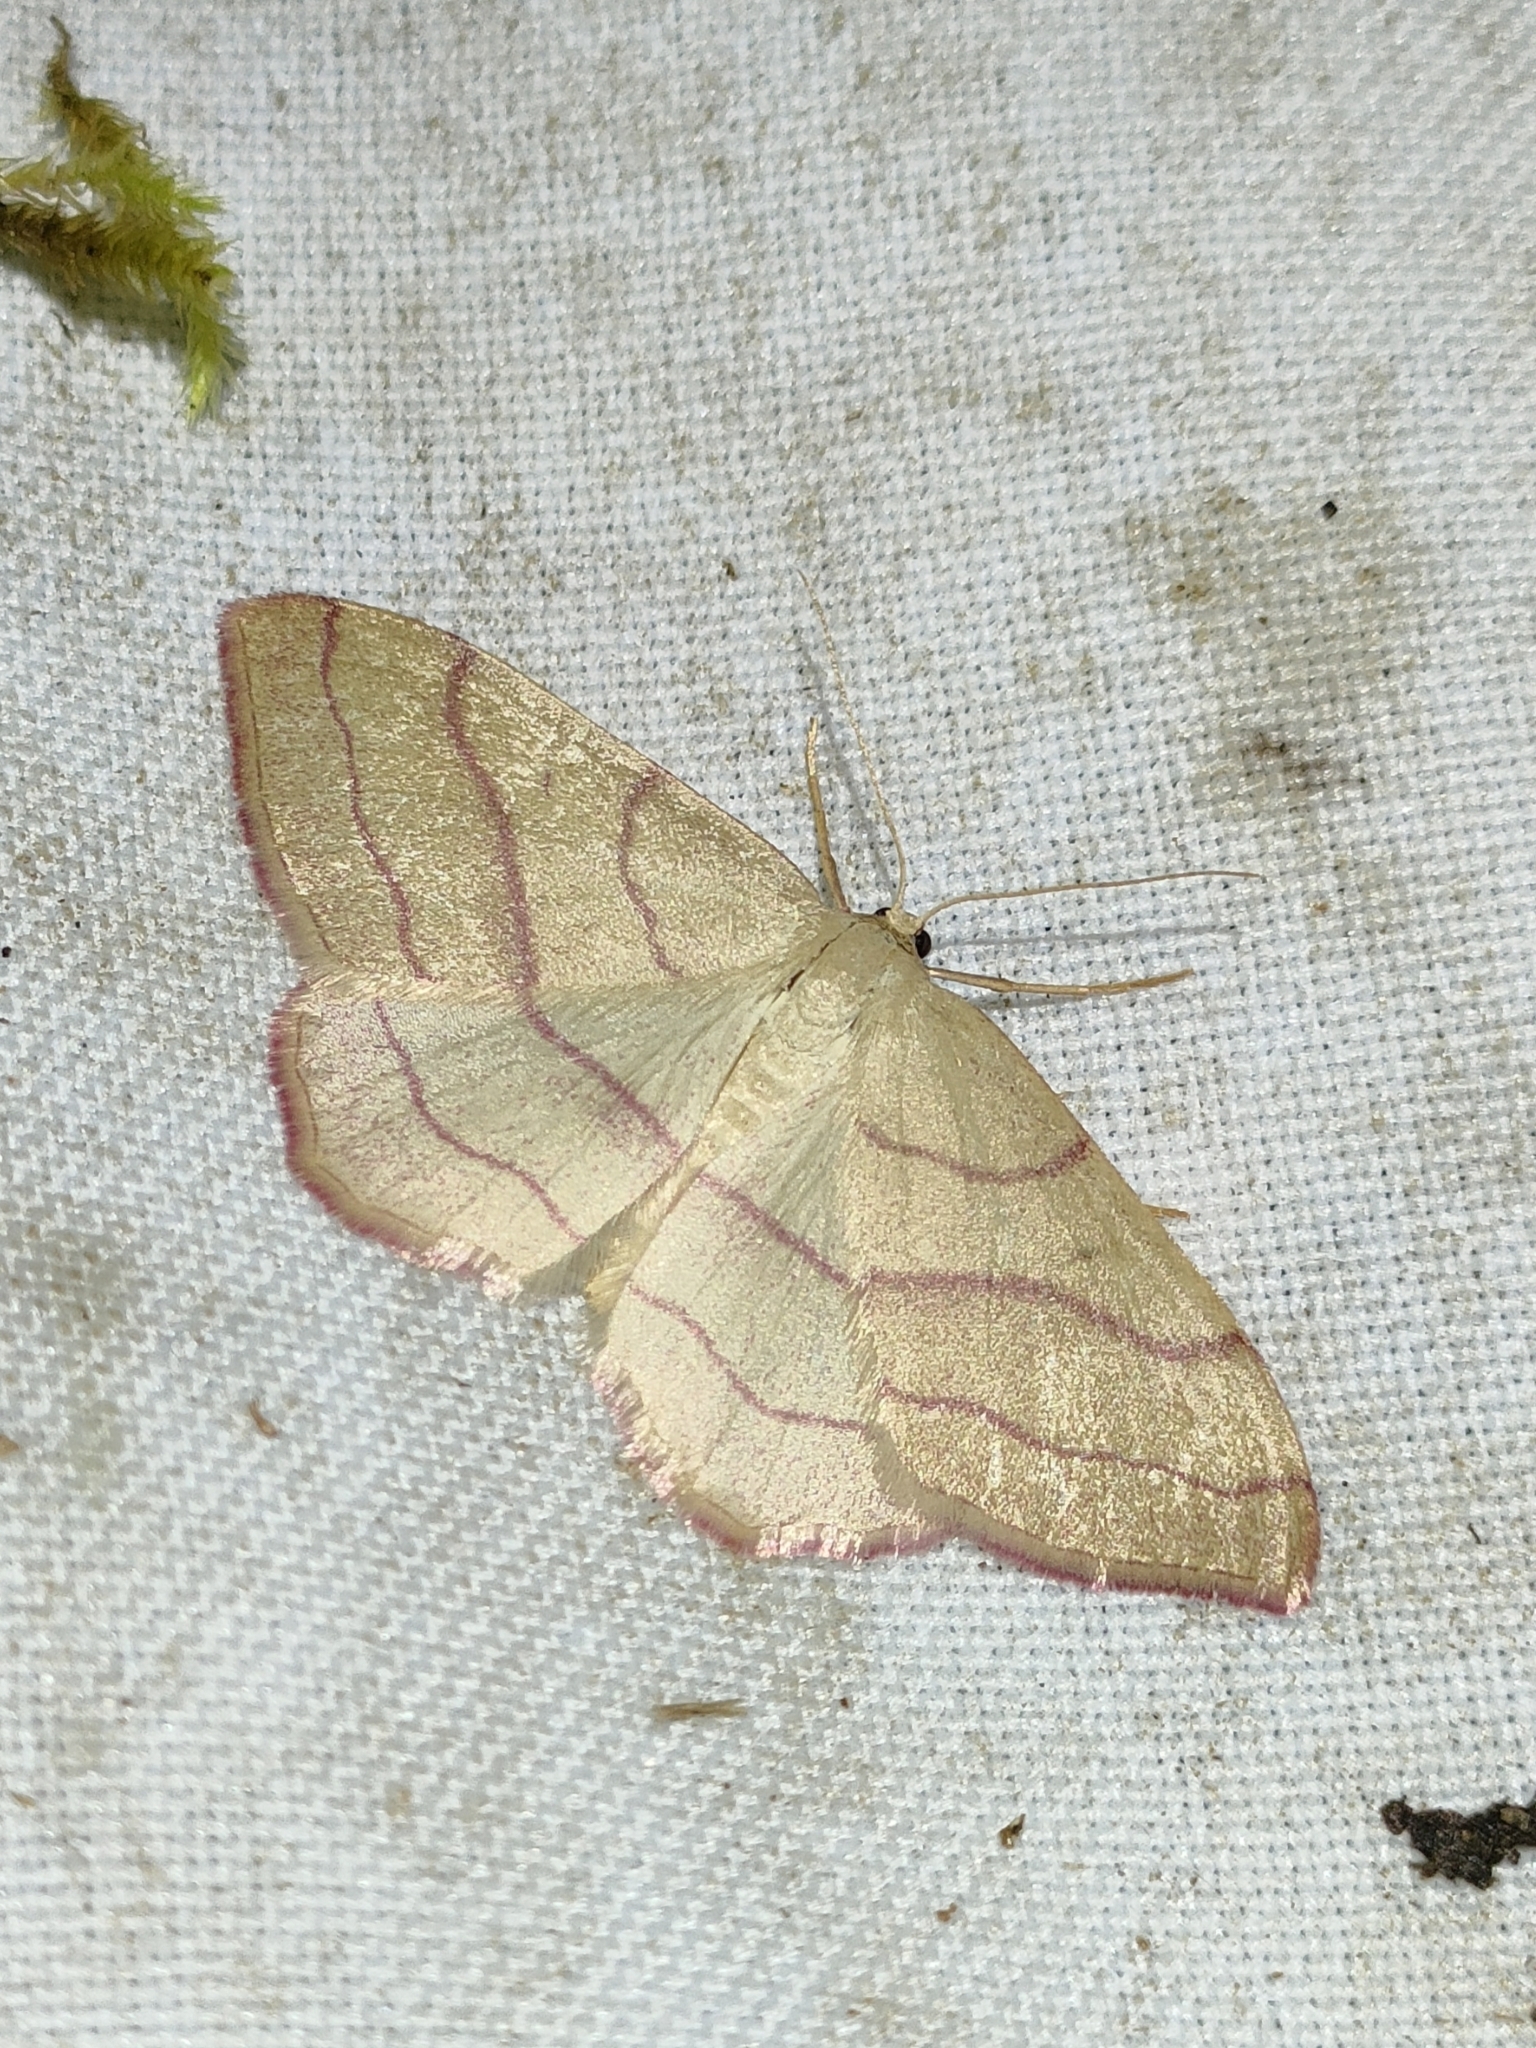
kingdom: Animalia
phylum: Arthropoda
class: Insecta
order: Lepidoptera
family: Geometridae
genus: Rhodostrophia
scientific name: Rhodostrophia vibicaria
